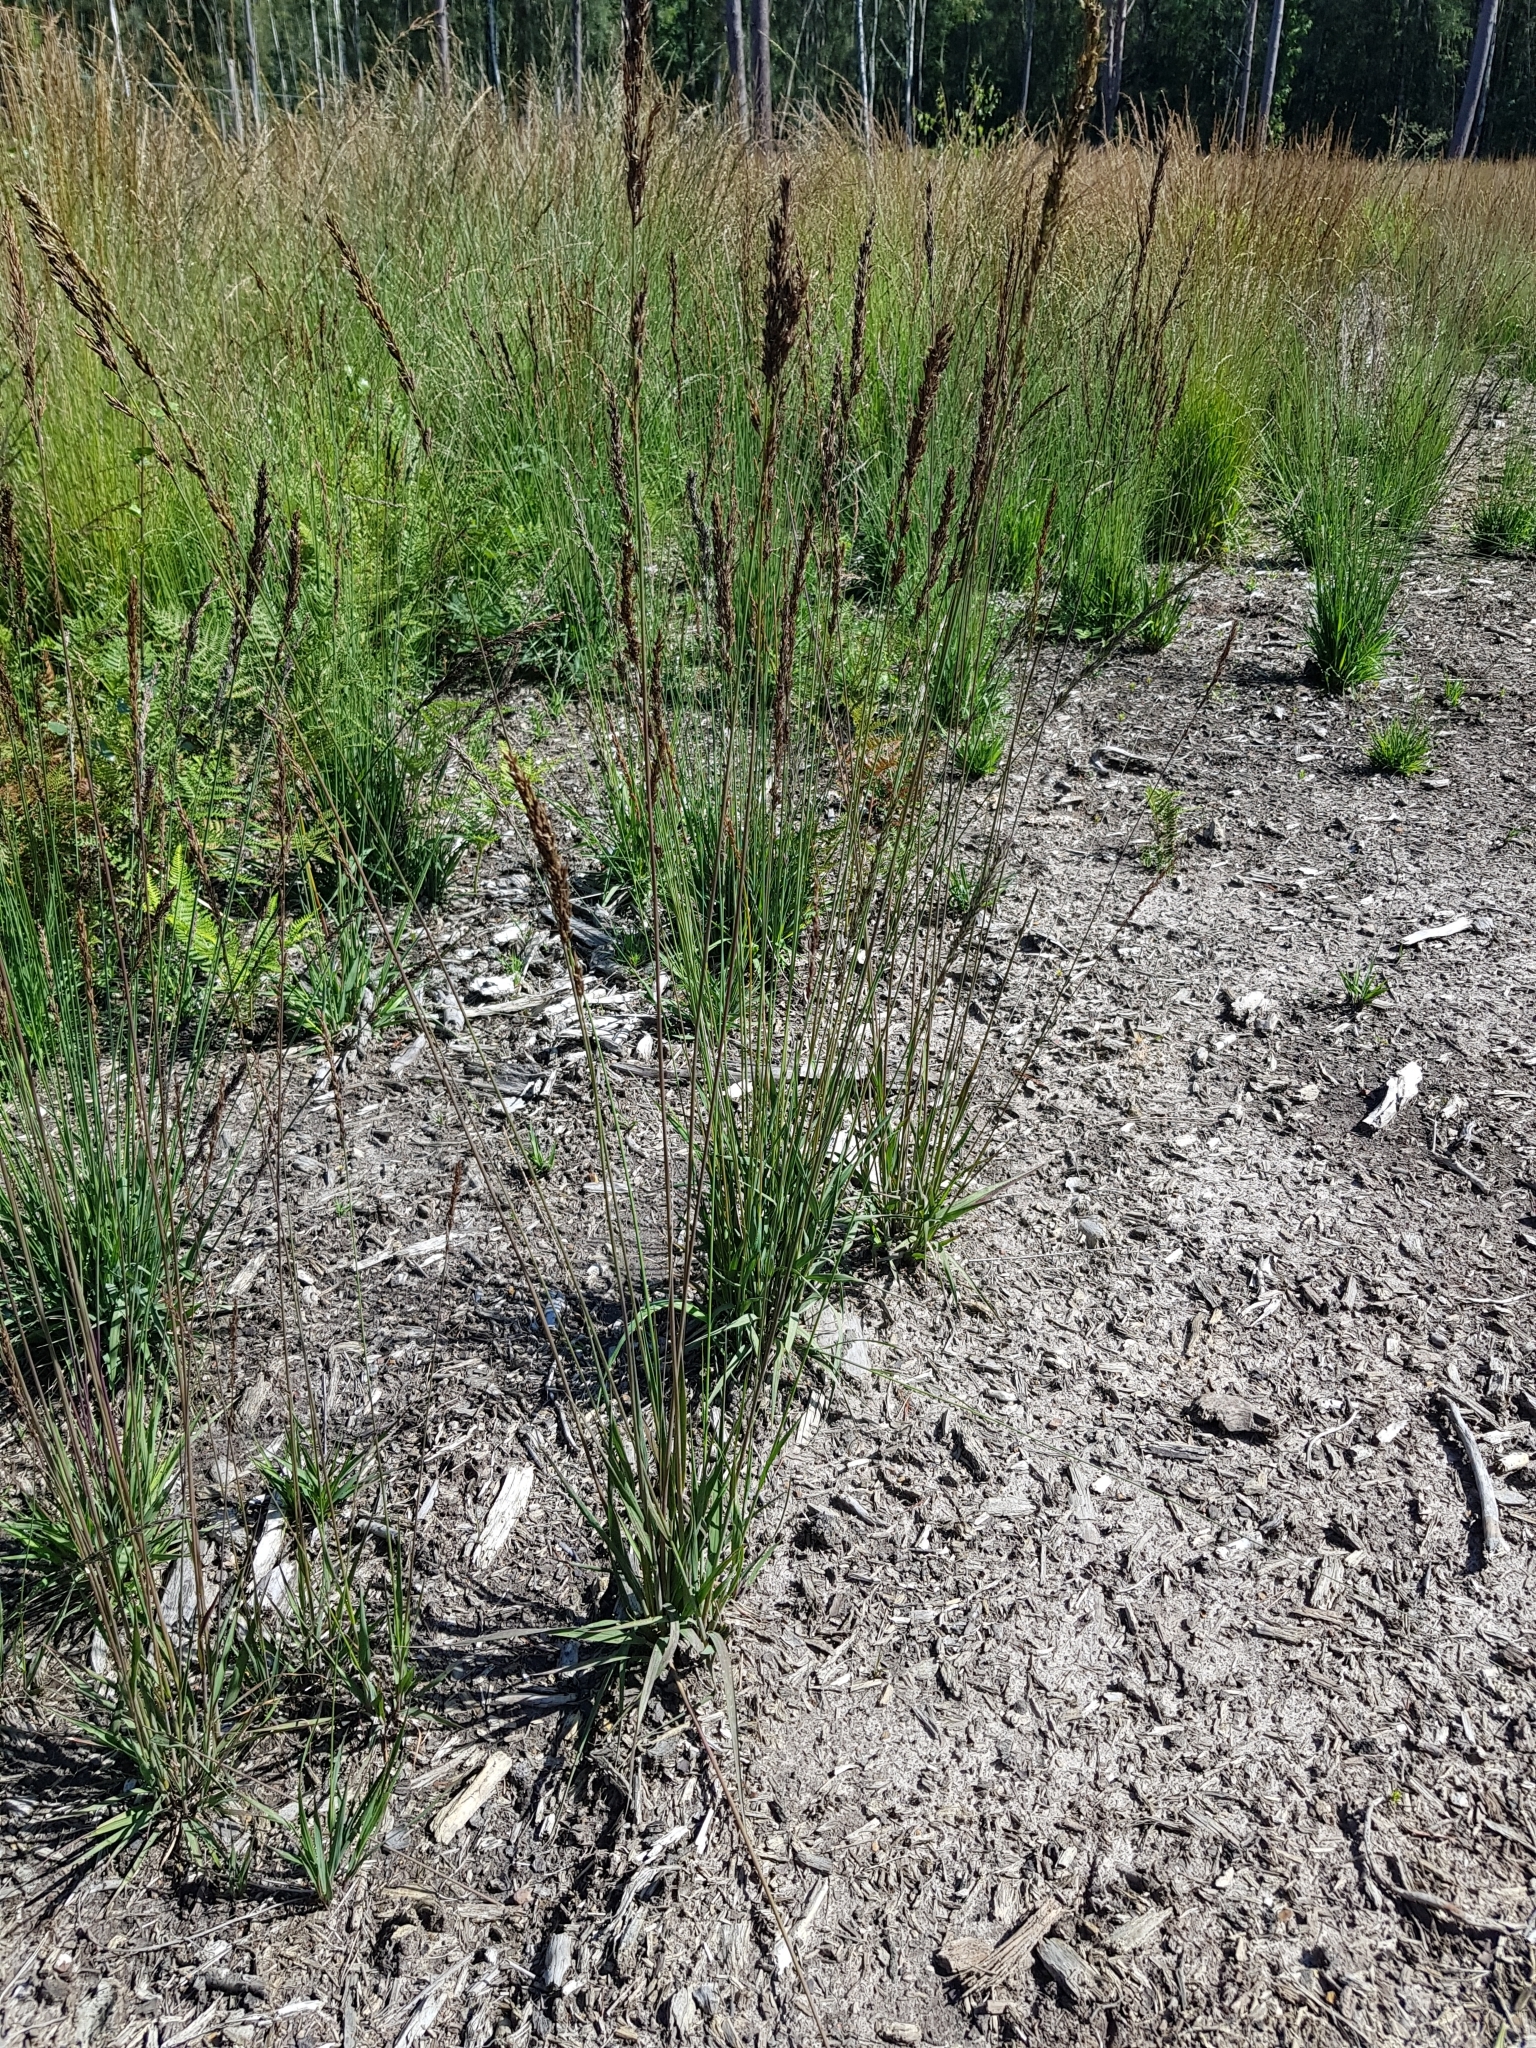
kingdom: Plantae
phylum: Tracheophyta
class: Liliopsida
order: Poales
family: Poaceae
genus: Molinia
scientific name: Molinia caerulea
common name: Purple moor-grass
